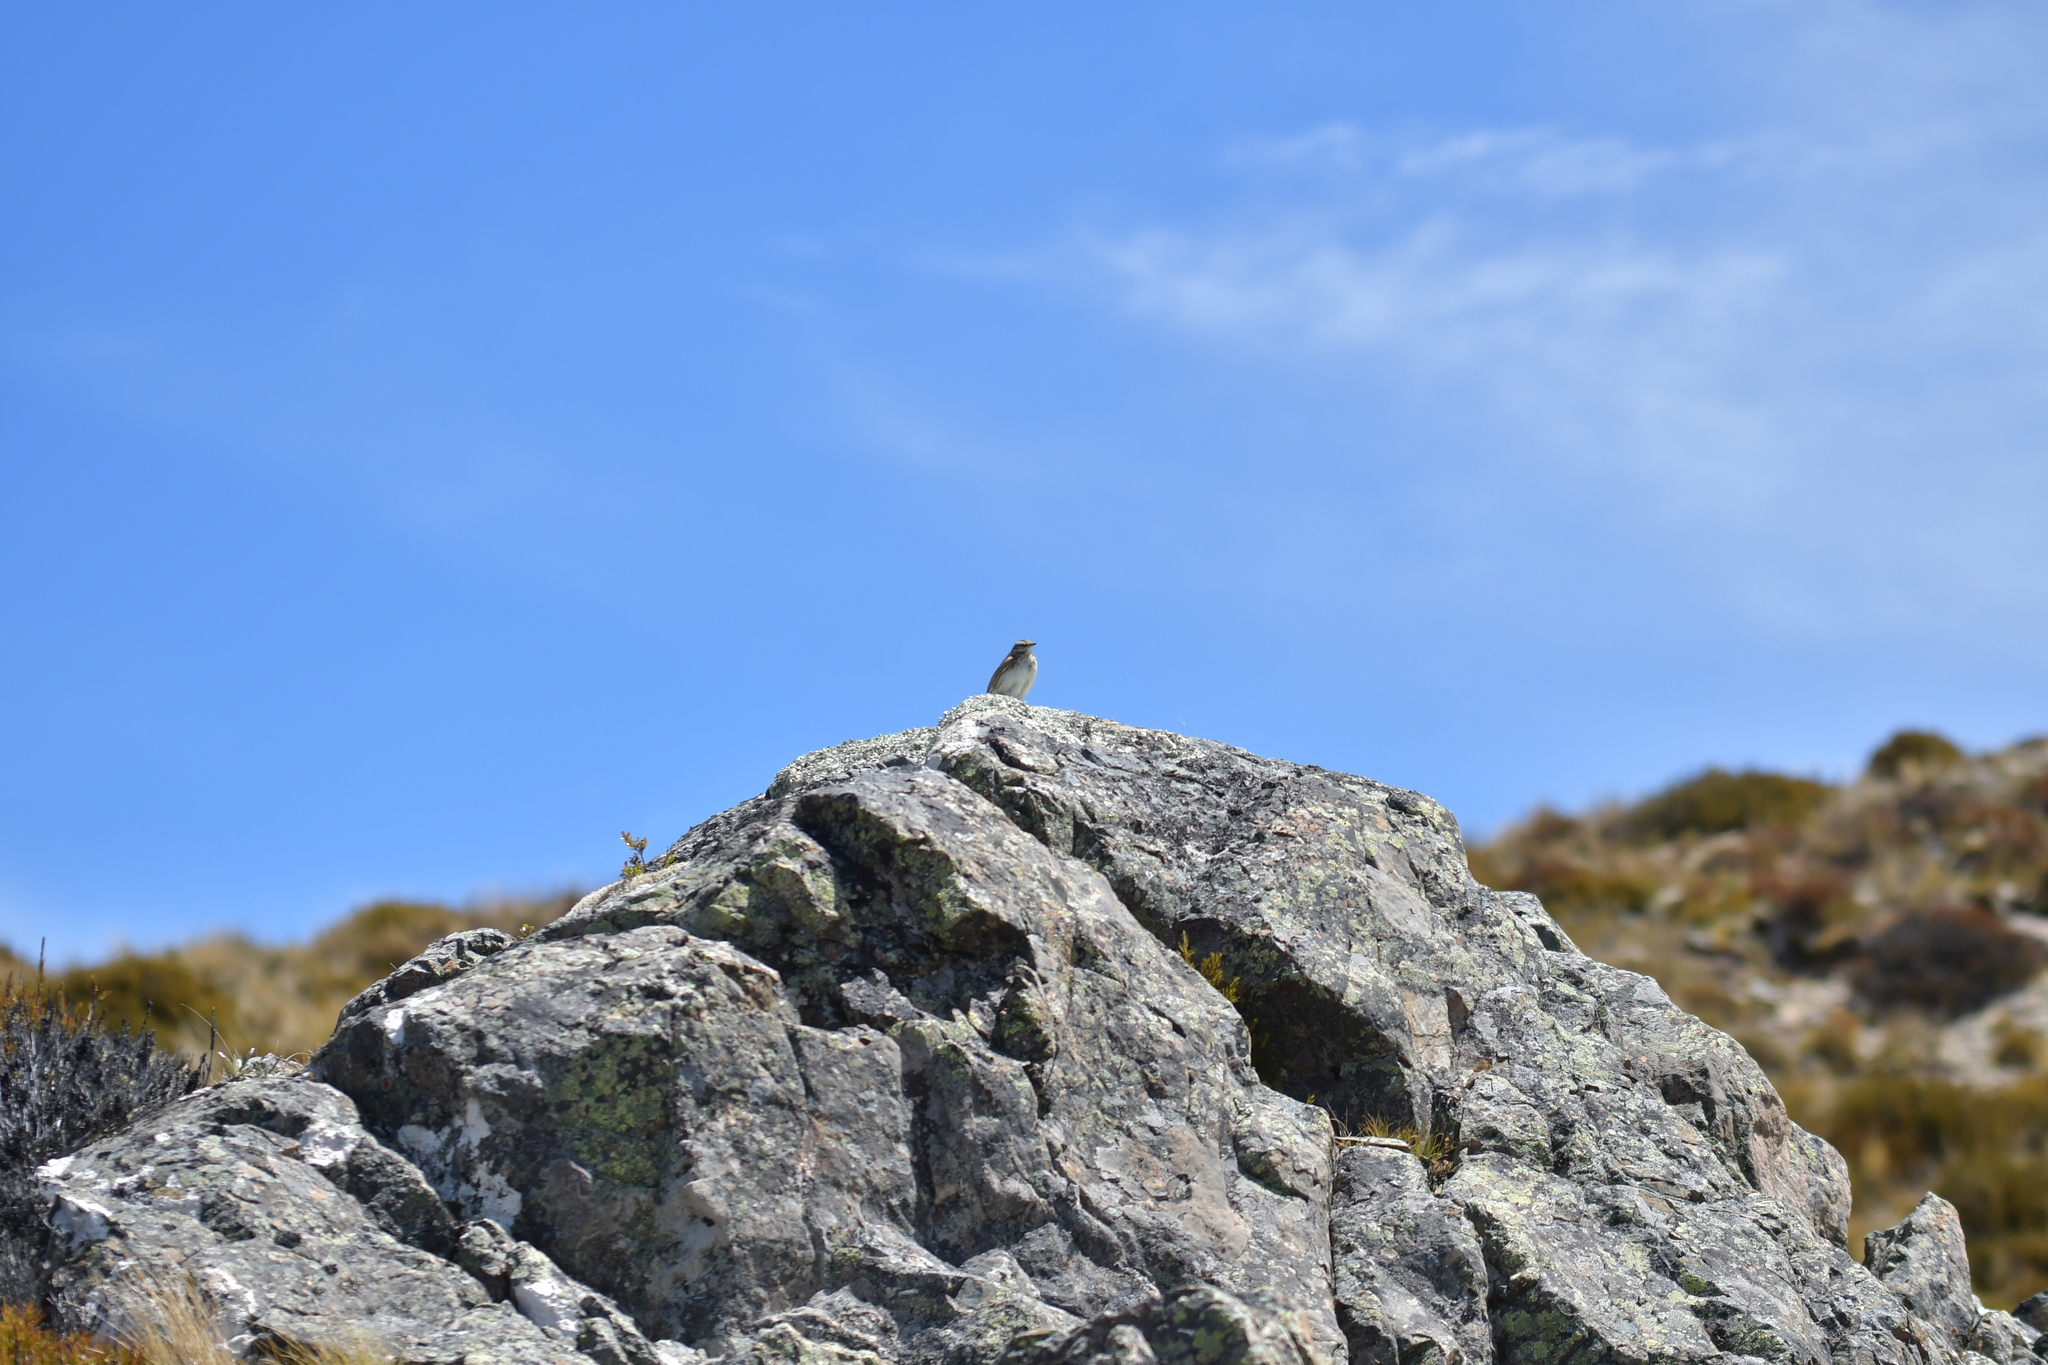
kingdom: Animalia
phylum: Chordata
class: Aves
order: Passeriformes
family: Motacillidae
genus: Anthus
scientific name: Anthus novaeseelandiae
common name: New zealand pipit
